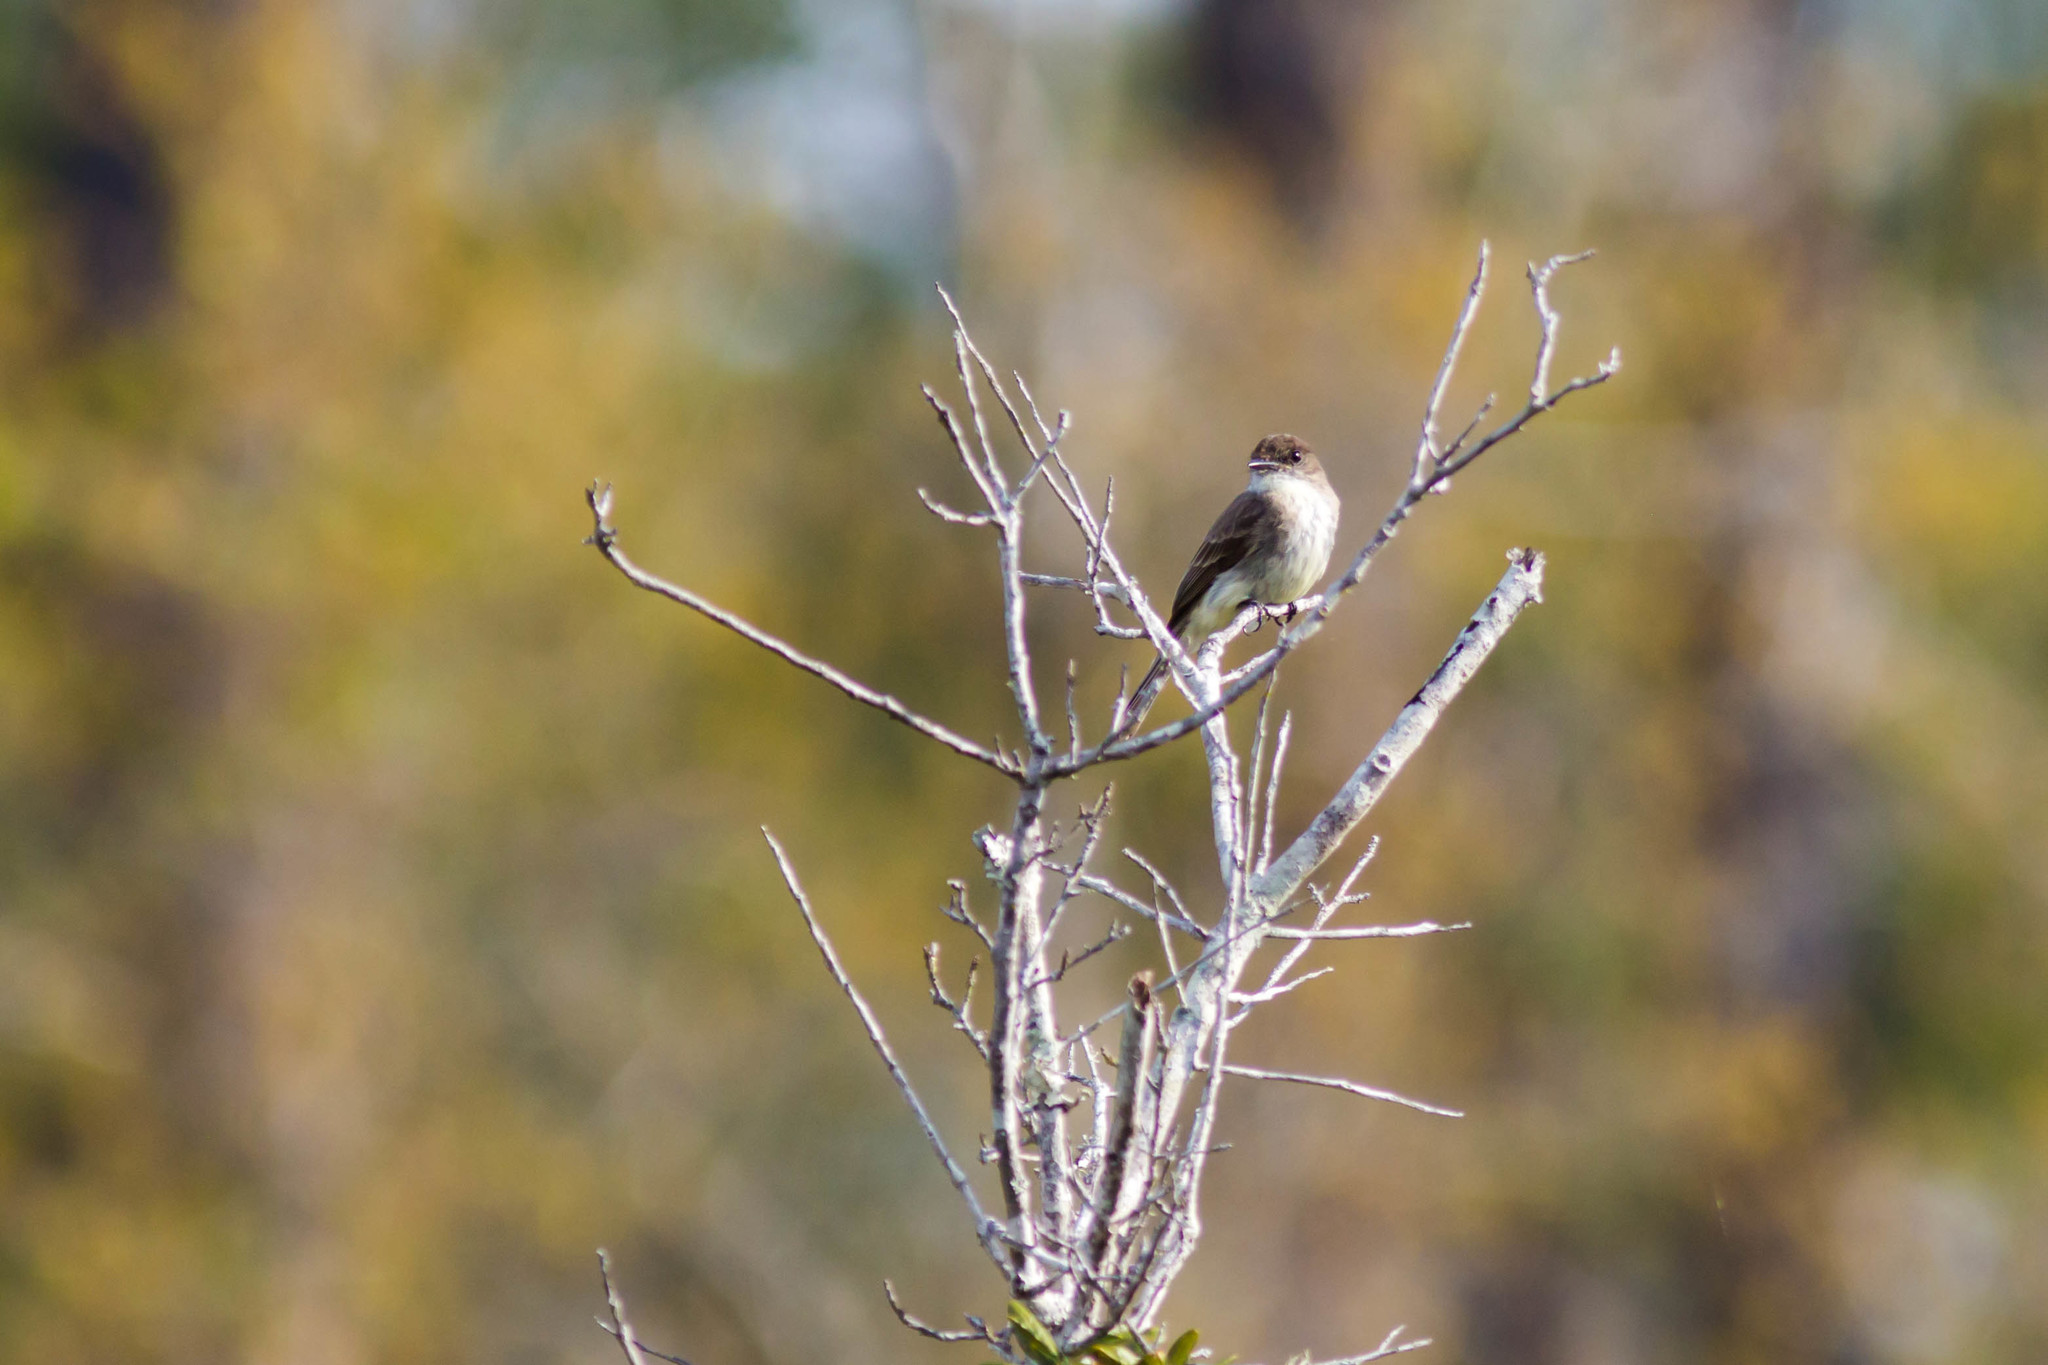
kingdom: Animalia
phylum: Chordata
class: Aves
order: Passeriformes
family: Tyrannidae
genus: Sayornis
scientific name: Sayornis phoebe
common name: Eastern phoebe
